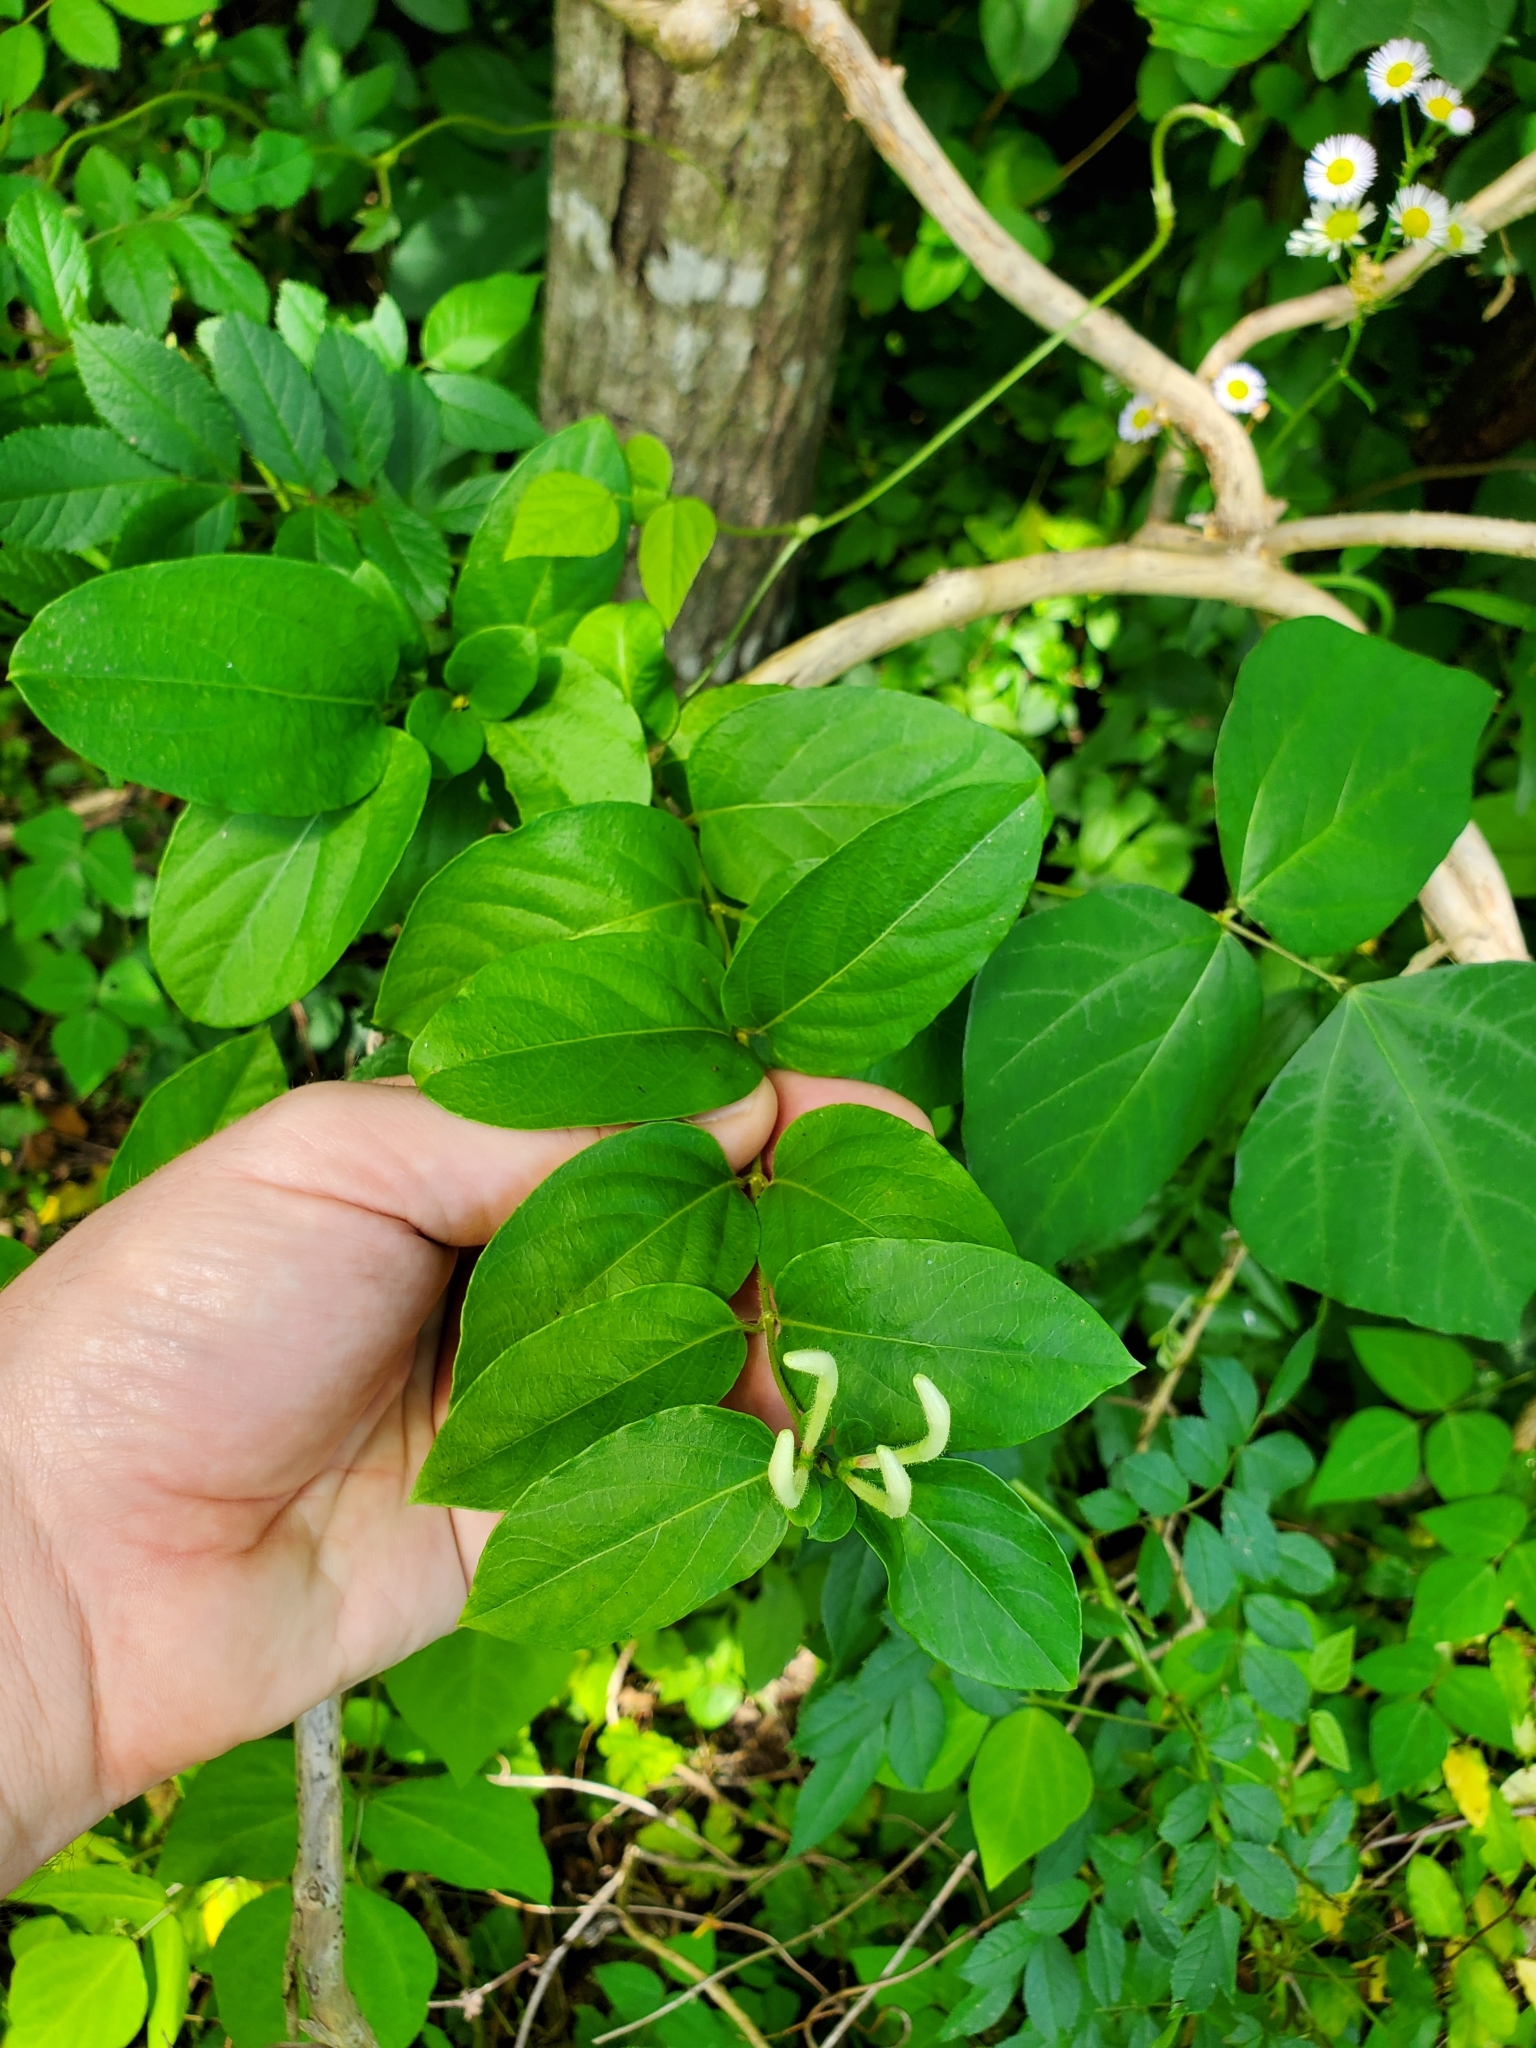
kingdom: Plantae
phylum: Tracheophyta
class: Magnoliopsida
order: Dipsacales
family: Caprifoliaceae
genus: Lonicera
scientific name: Lonicera japonica
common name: Japanese honeysuckle
